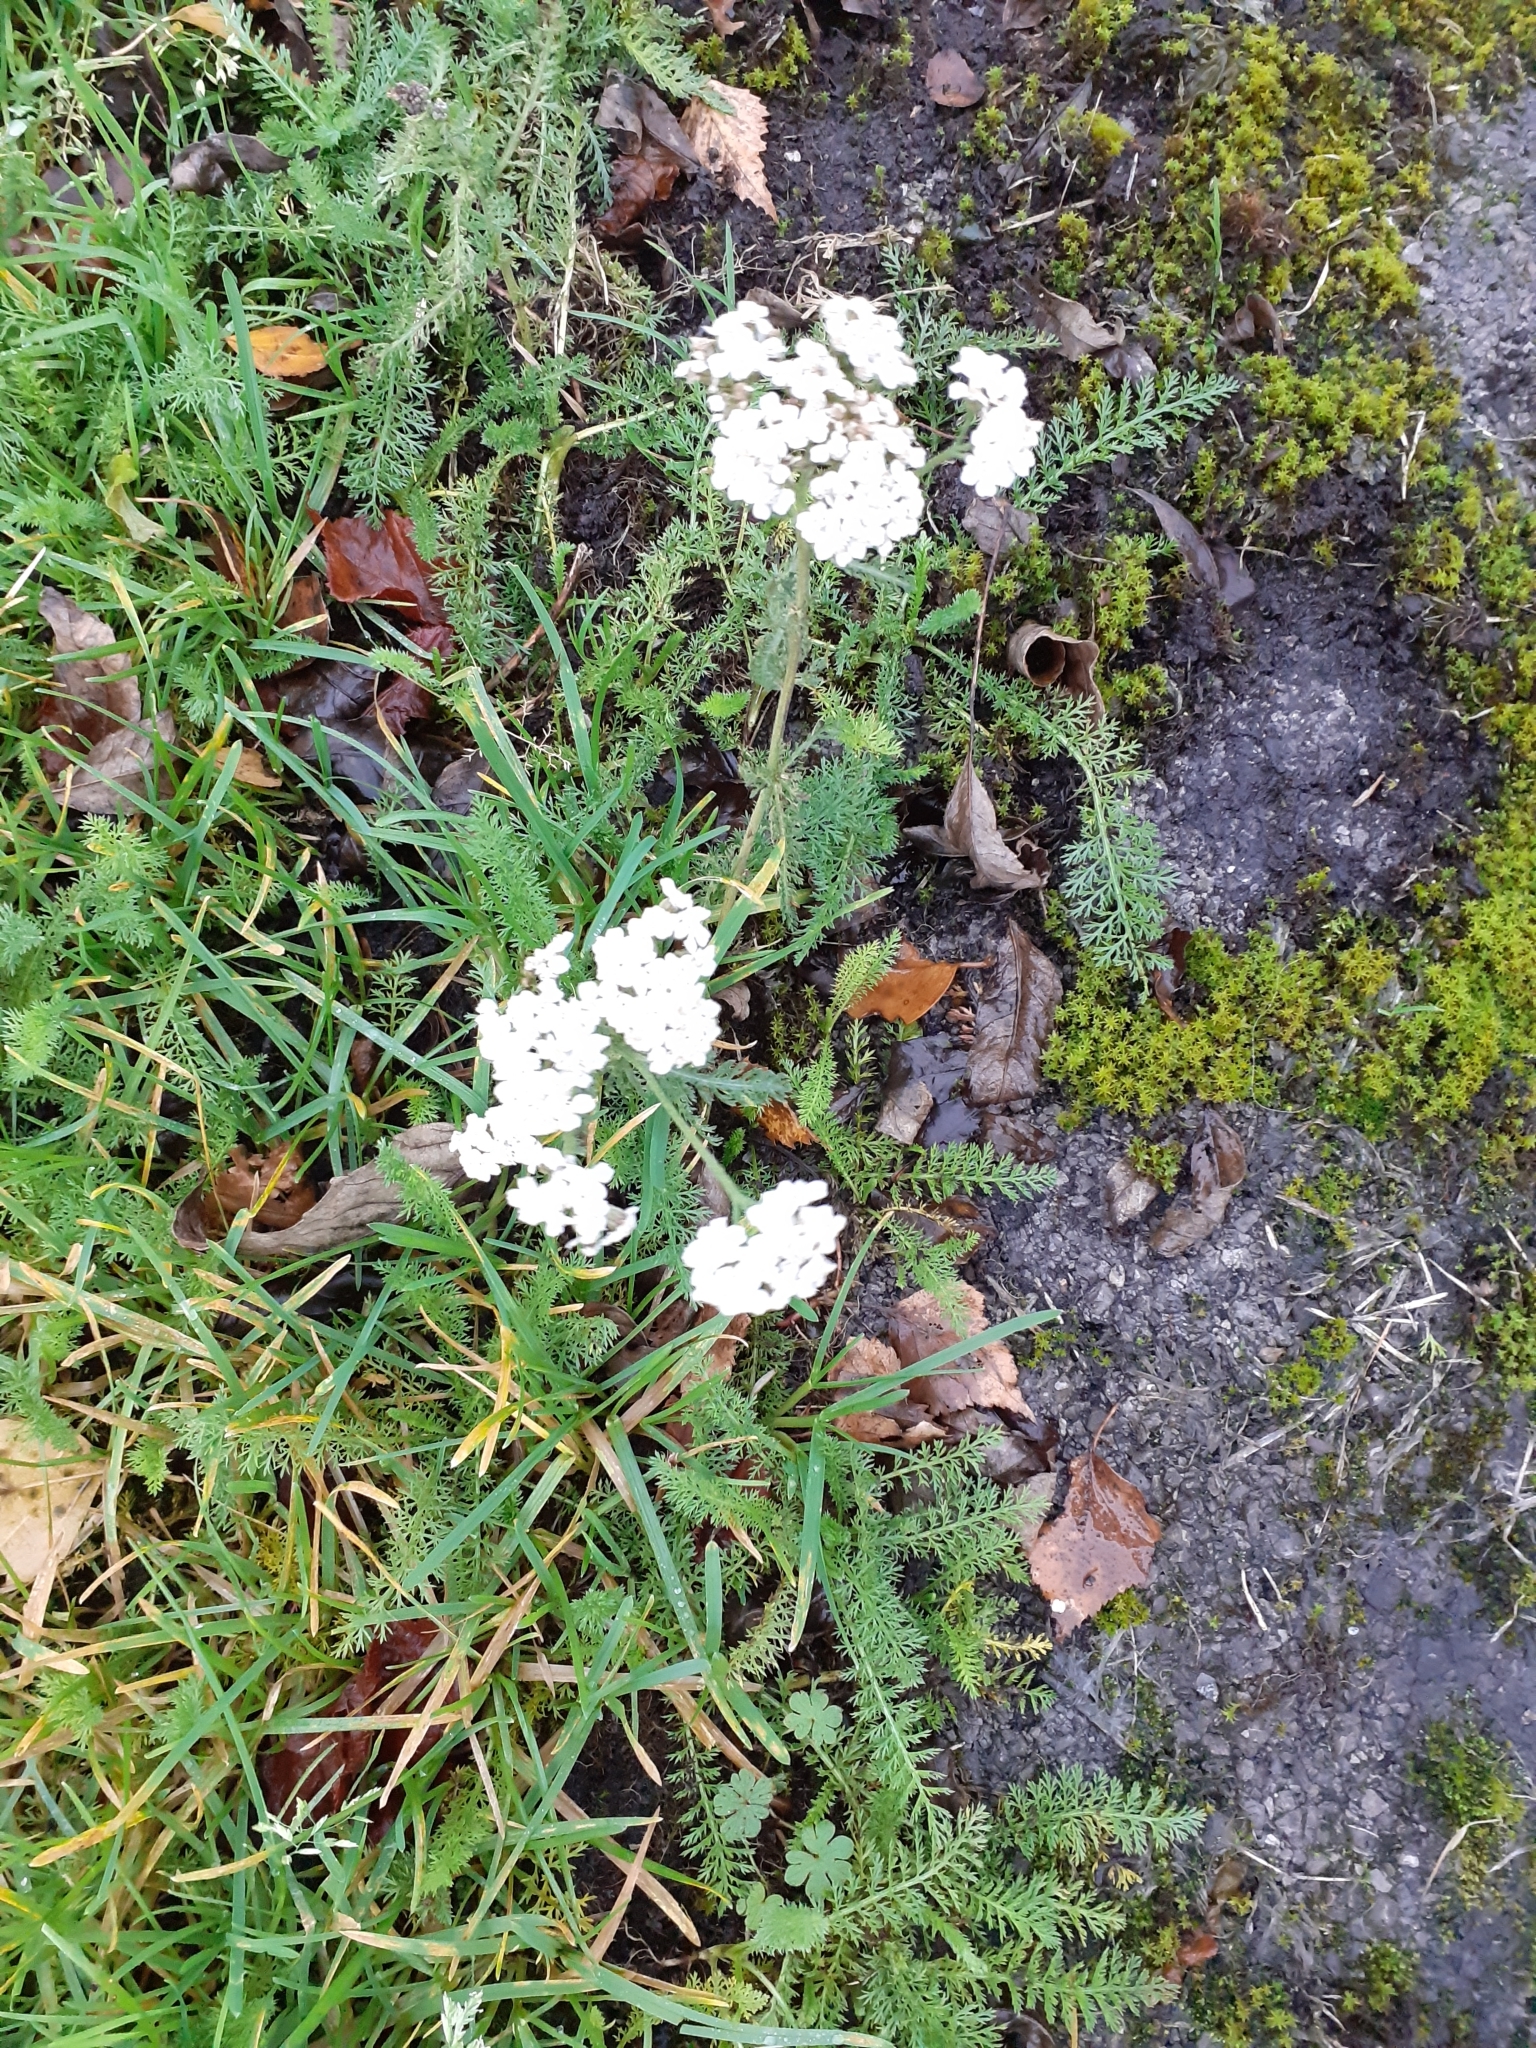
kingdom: Plantae
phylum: Tracheophyta
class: Magnoliopsida
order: Asterales
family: Asteraceae
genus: Achillea
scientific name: Achillea millefolium
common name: Yarrow
